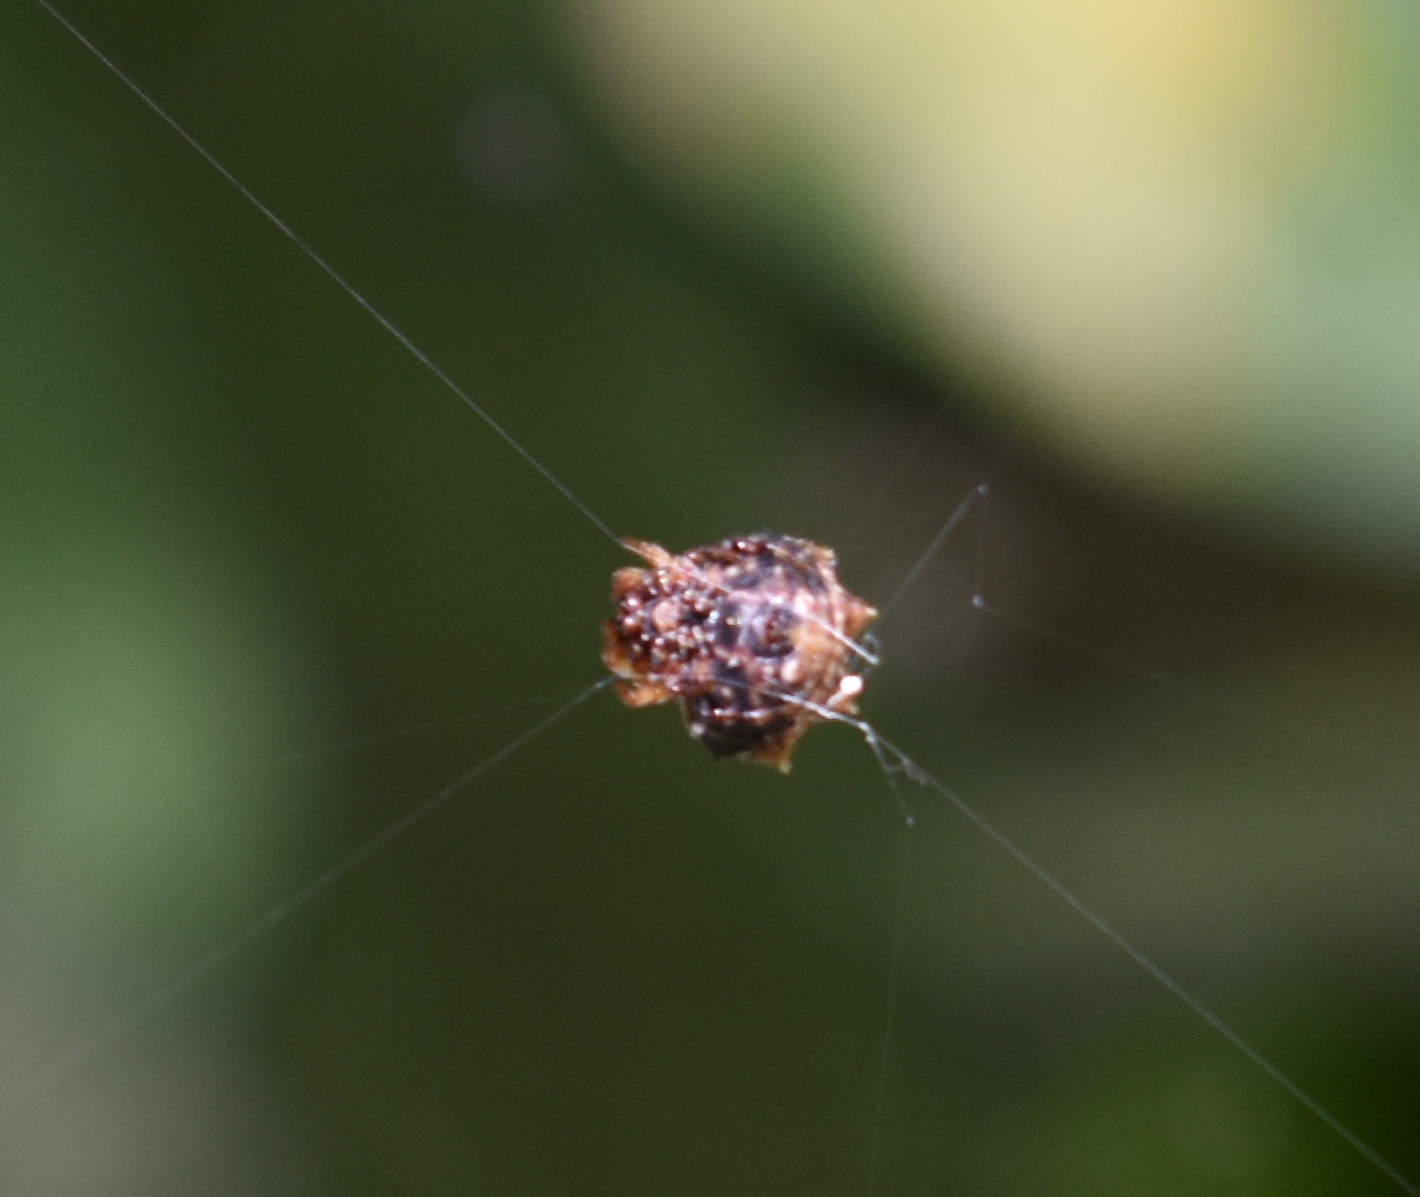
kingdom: Animalia
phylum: Arthropoda
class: Arachnida
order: Araneae
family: Araneidae
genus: Thelacantha
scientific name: Thelacantha brevispina
